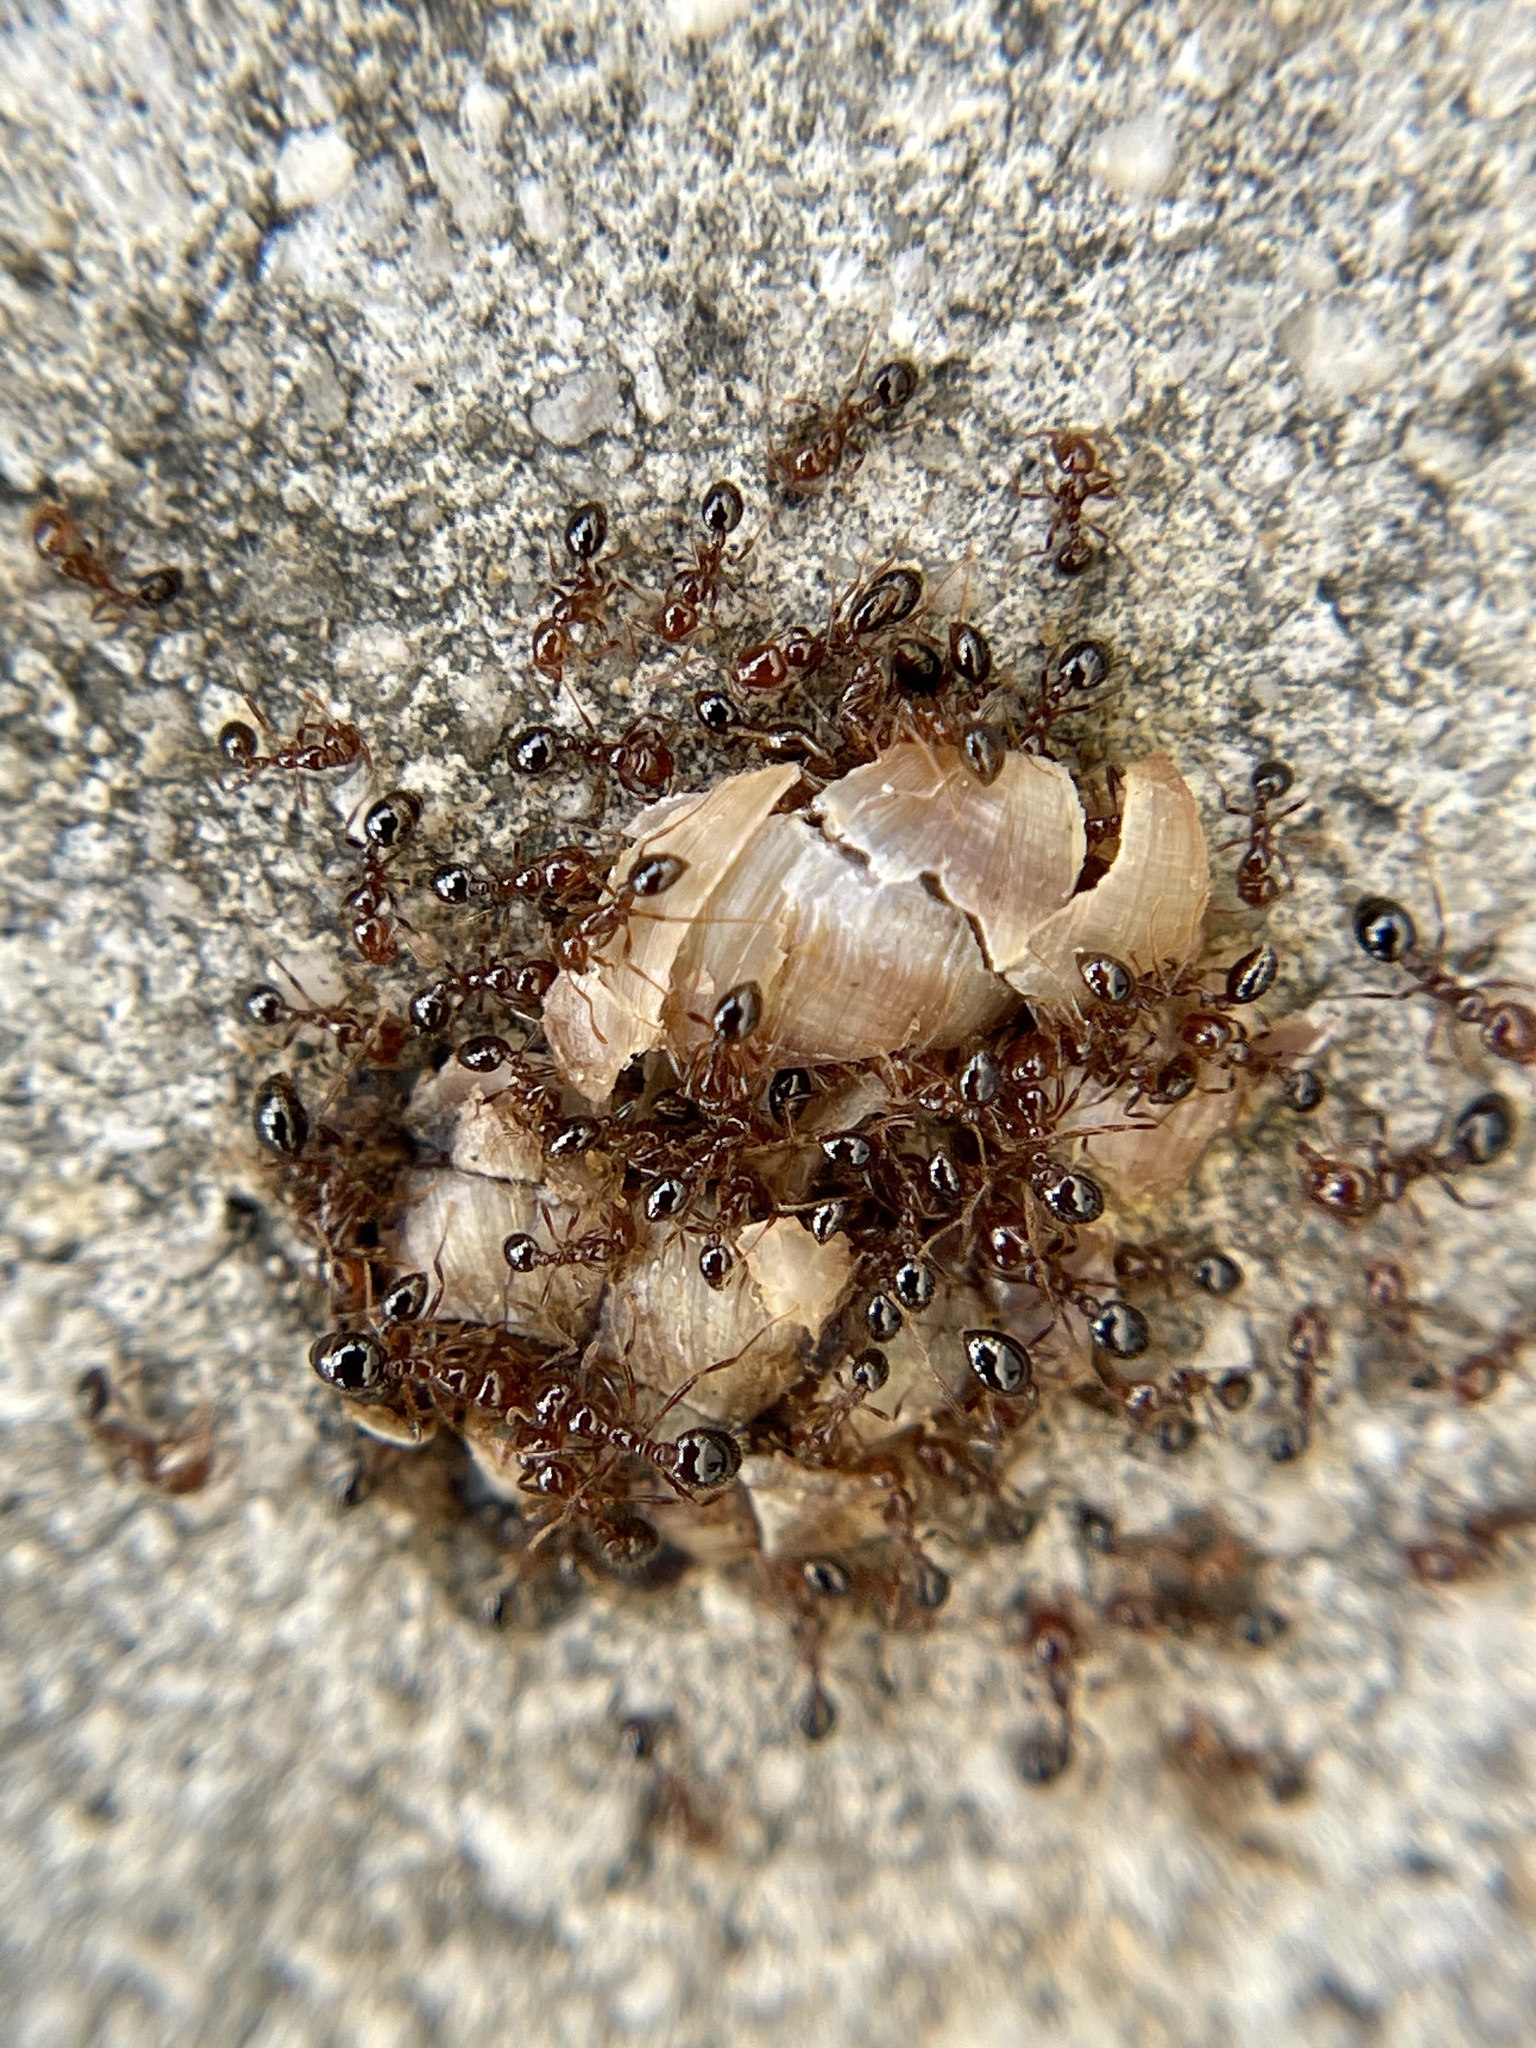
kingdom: Animalia
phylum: Arthropoda
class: Insecta
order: Hymenoptera
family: Formicidae
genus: Solenopsis
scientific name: Solenopsis invicta
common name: Red imported fire ant
